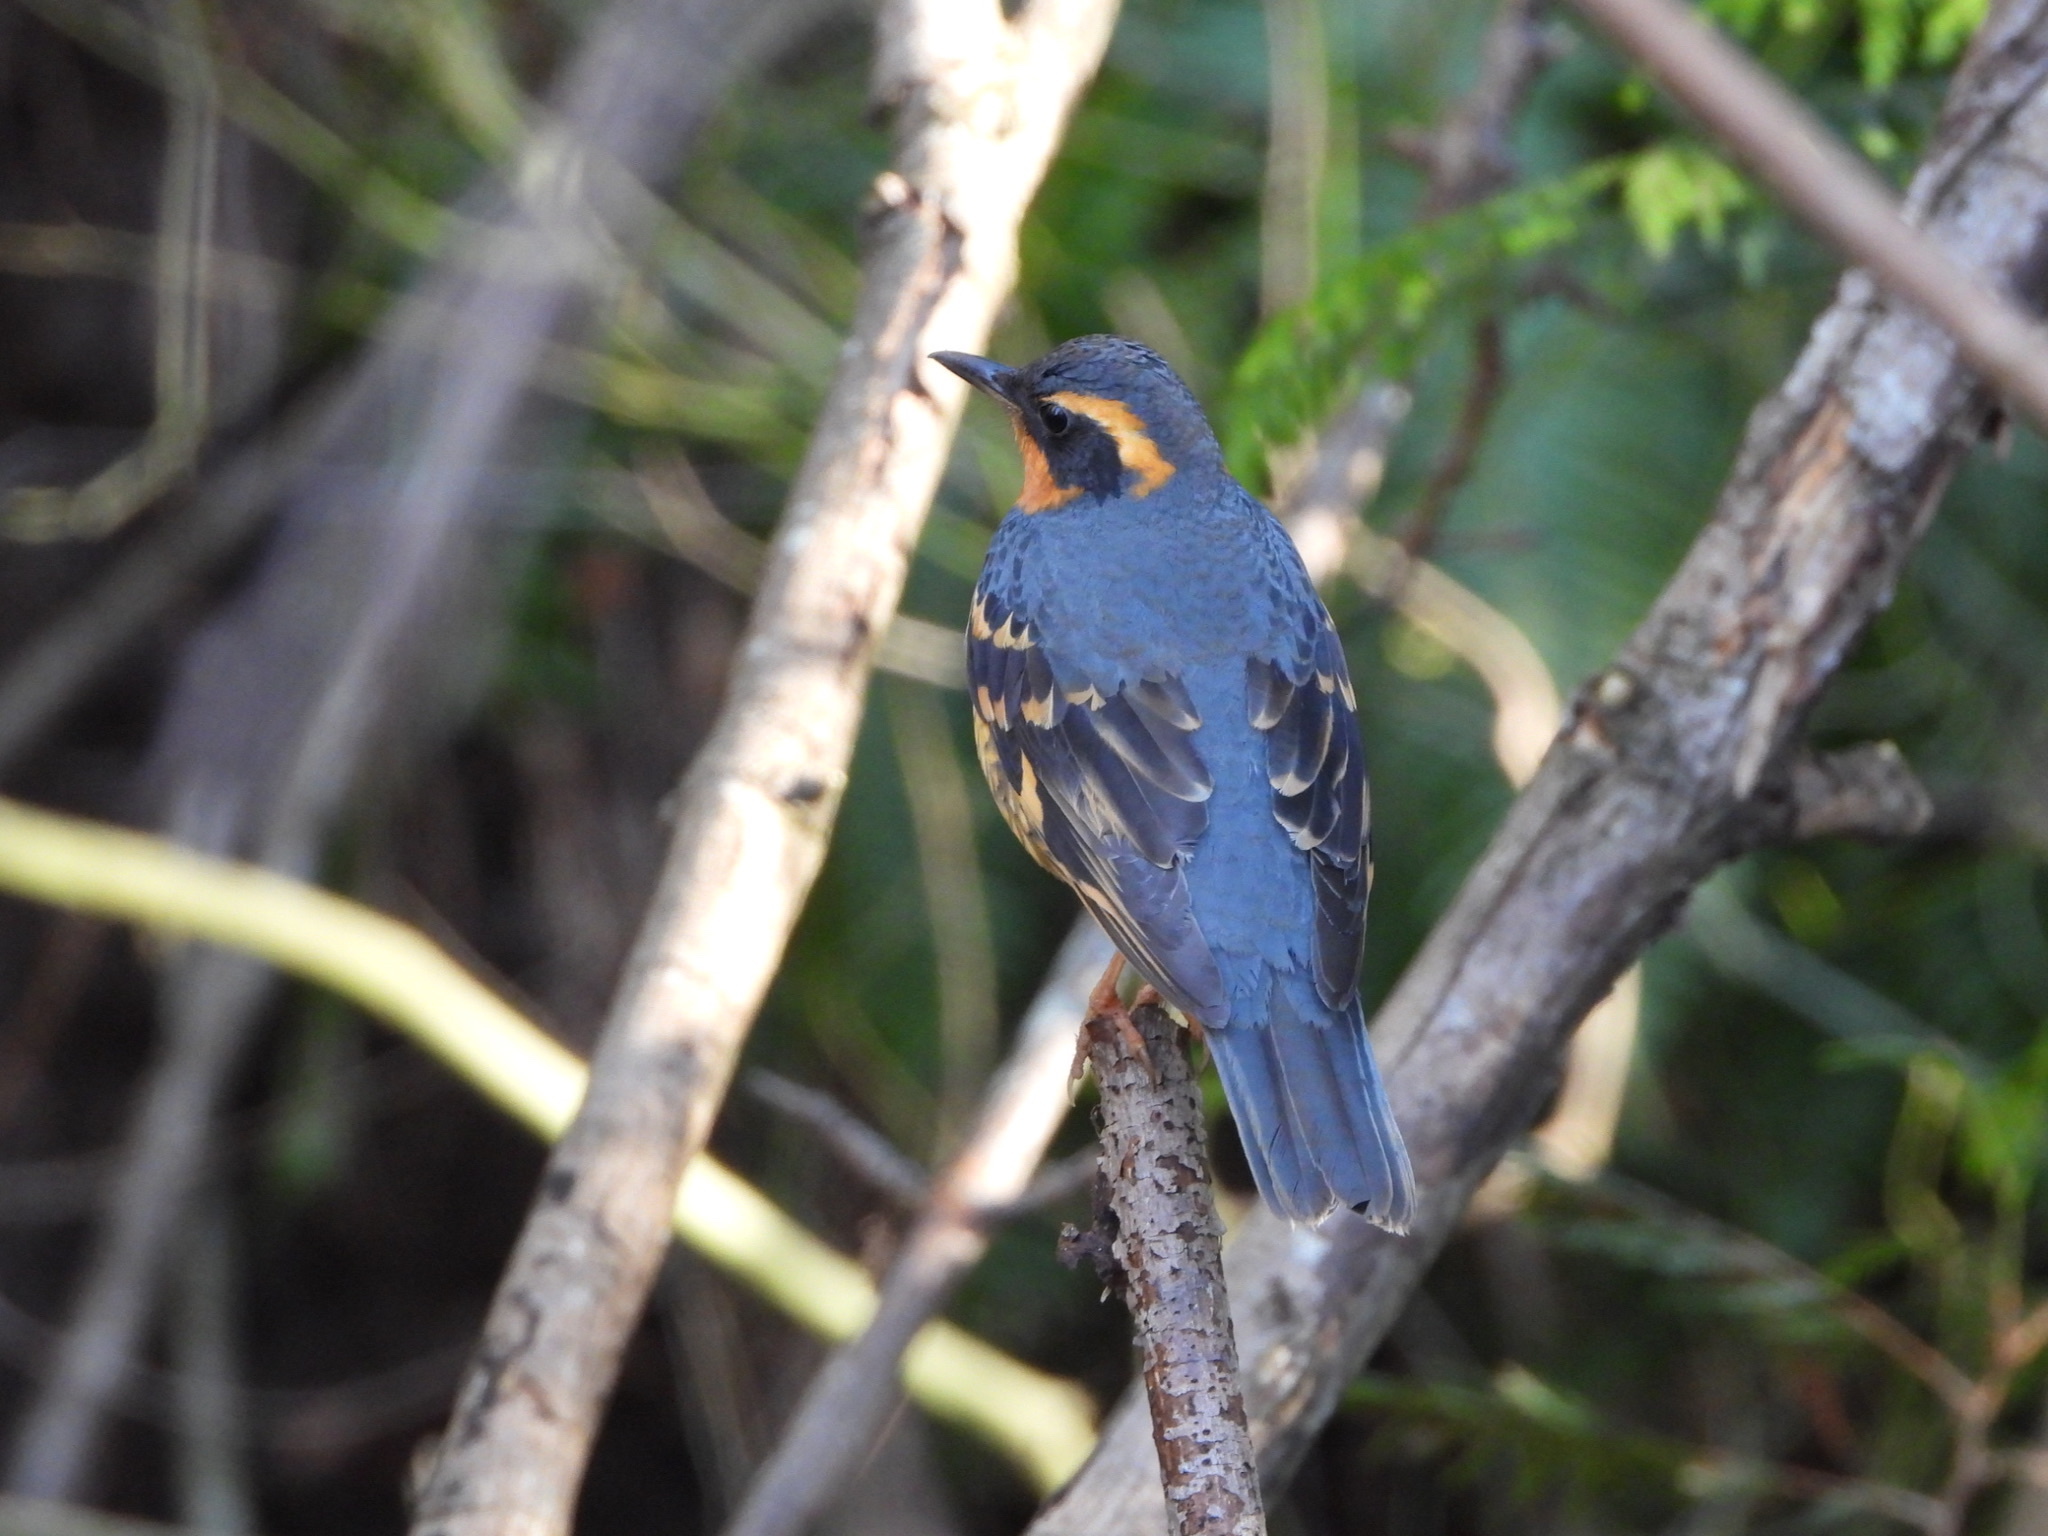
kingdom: Animalia
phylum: Chordata
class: Aves
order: Passeriformes
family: Turdidae
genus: Ixoreus
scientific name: Ixoreus naevius
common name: Varied thrush
